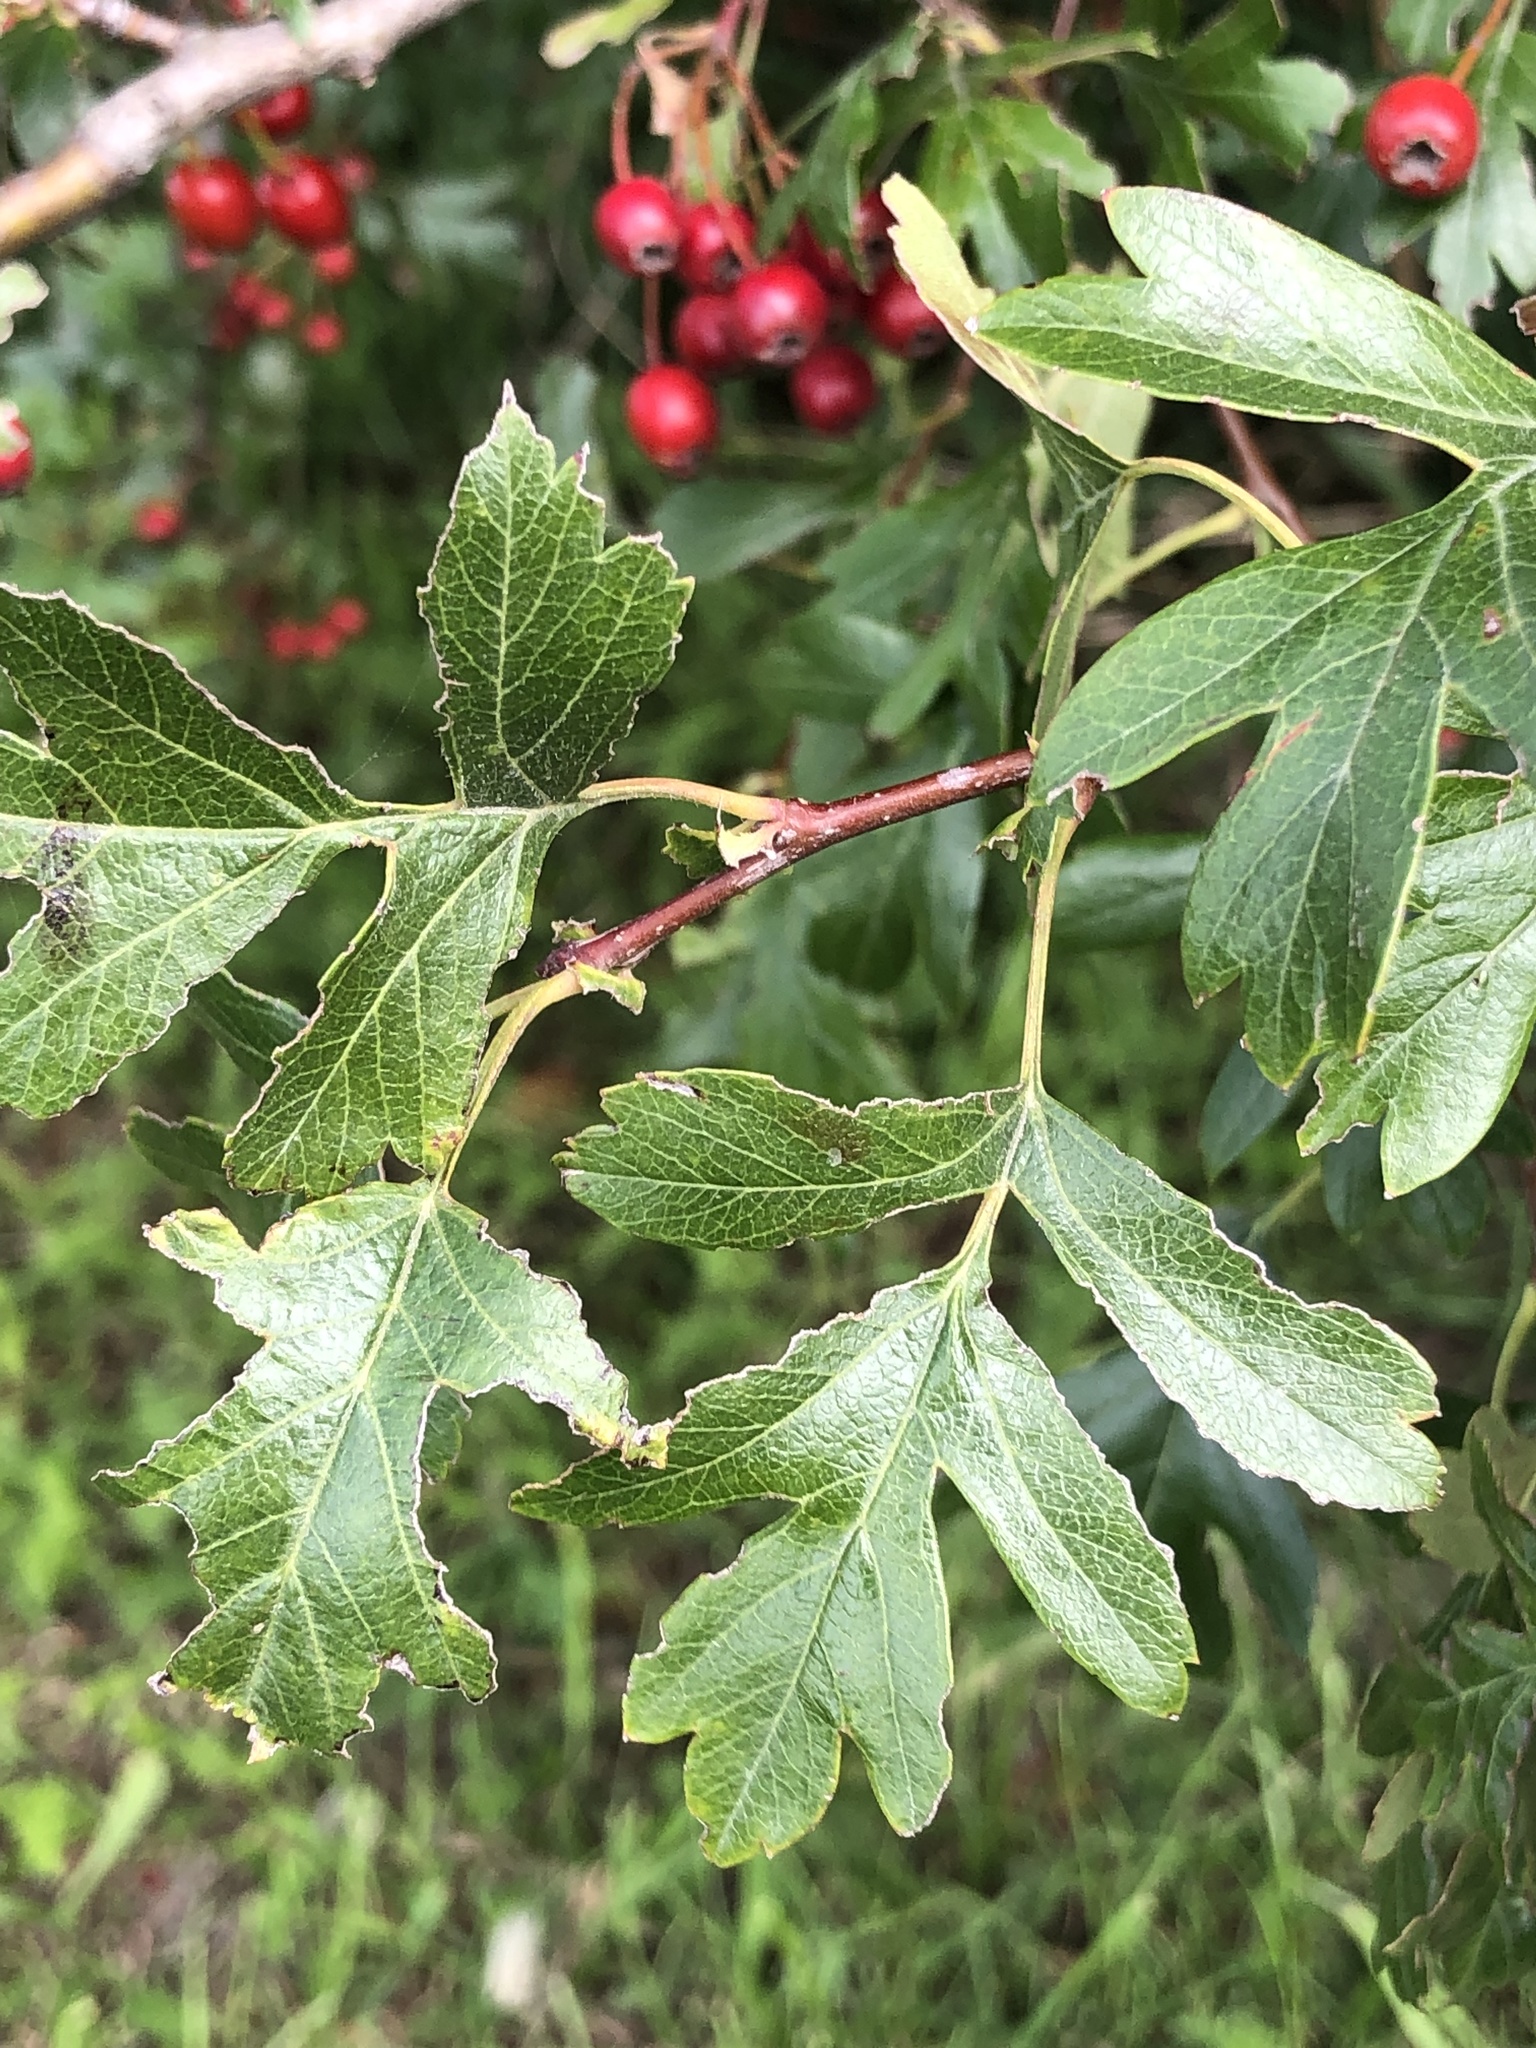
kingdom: Plantae
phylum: Tracheophyta
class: Magnoliopsida
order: Rosales
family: Rosaceae
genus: Crataegus
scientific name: Crataegus monogyna
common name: Hawthorn
